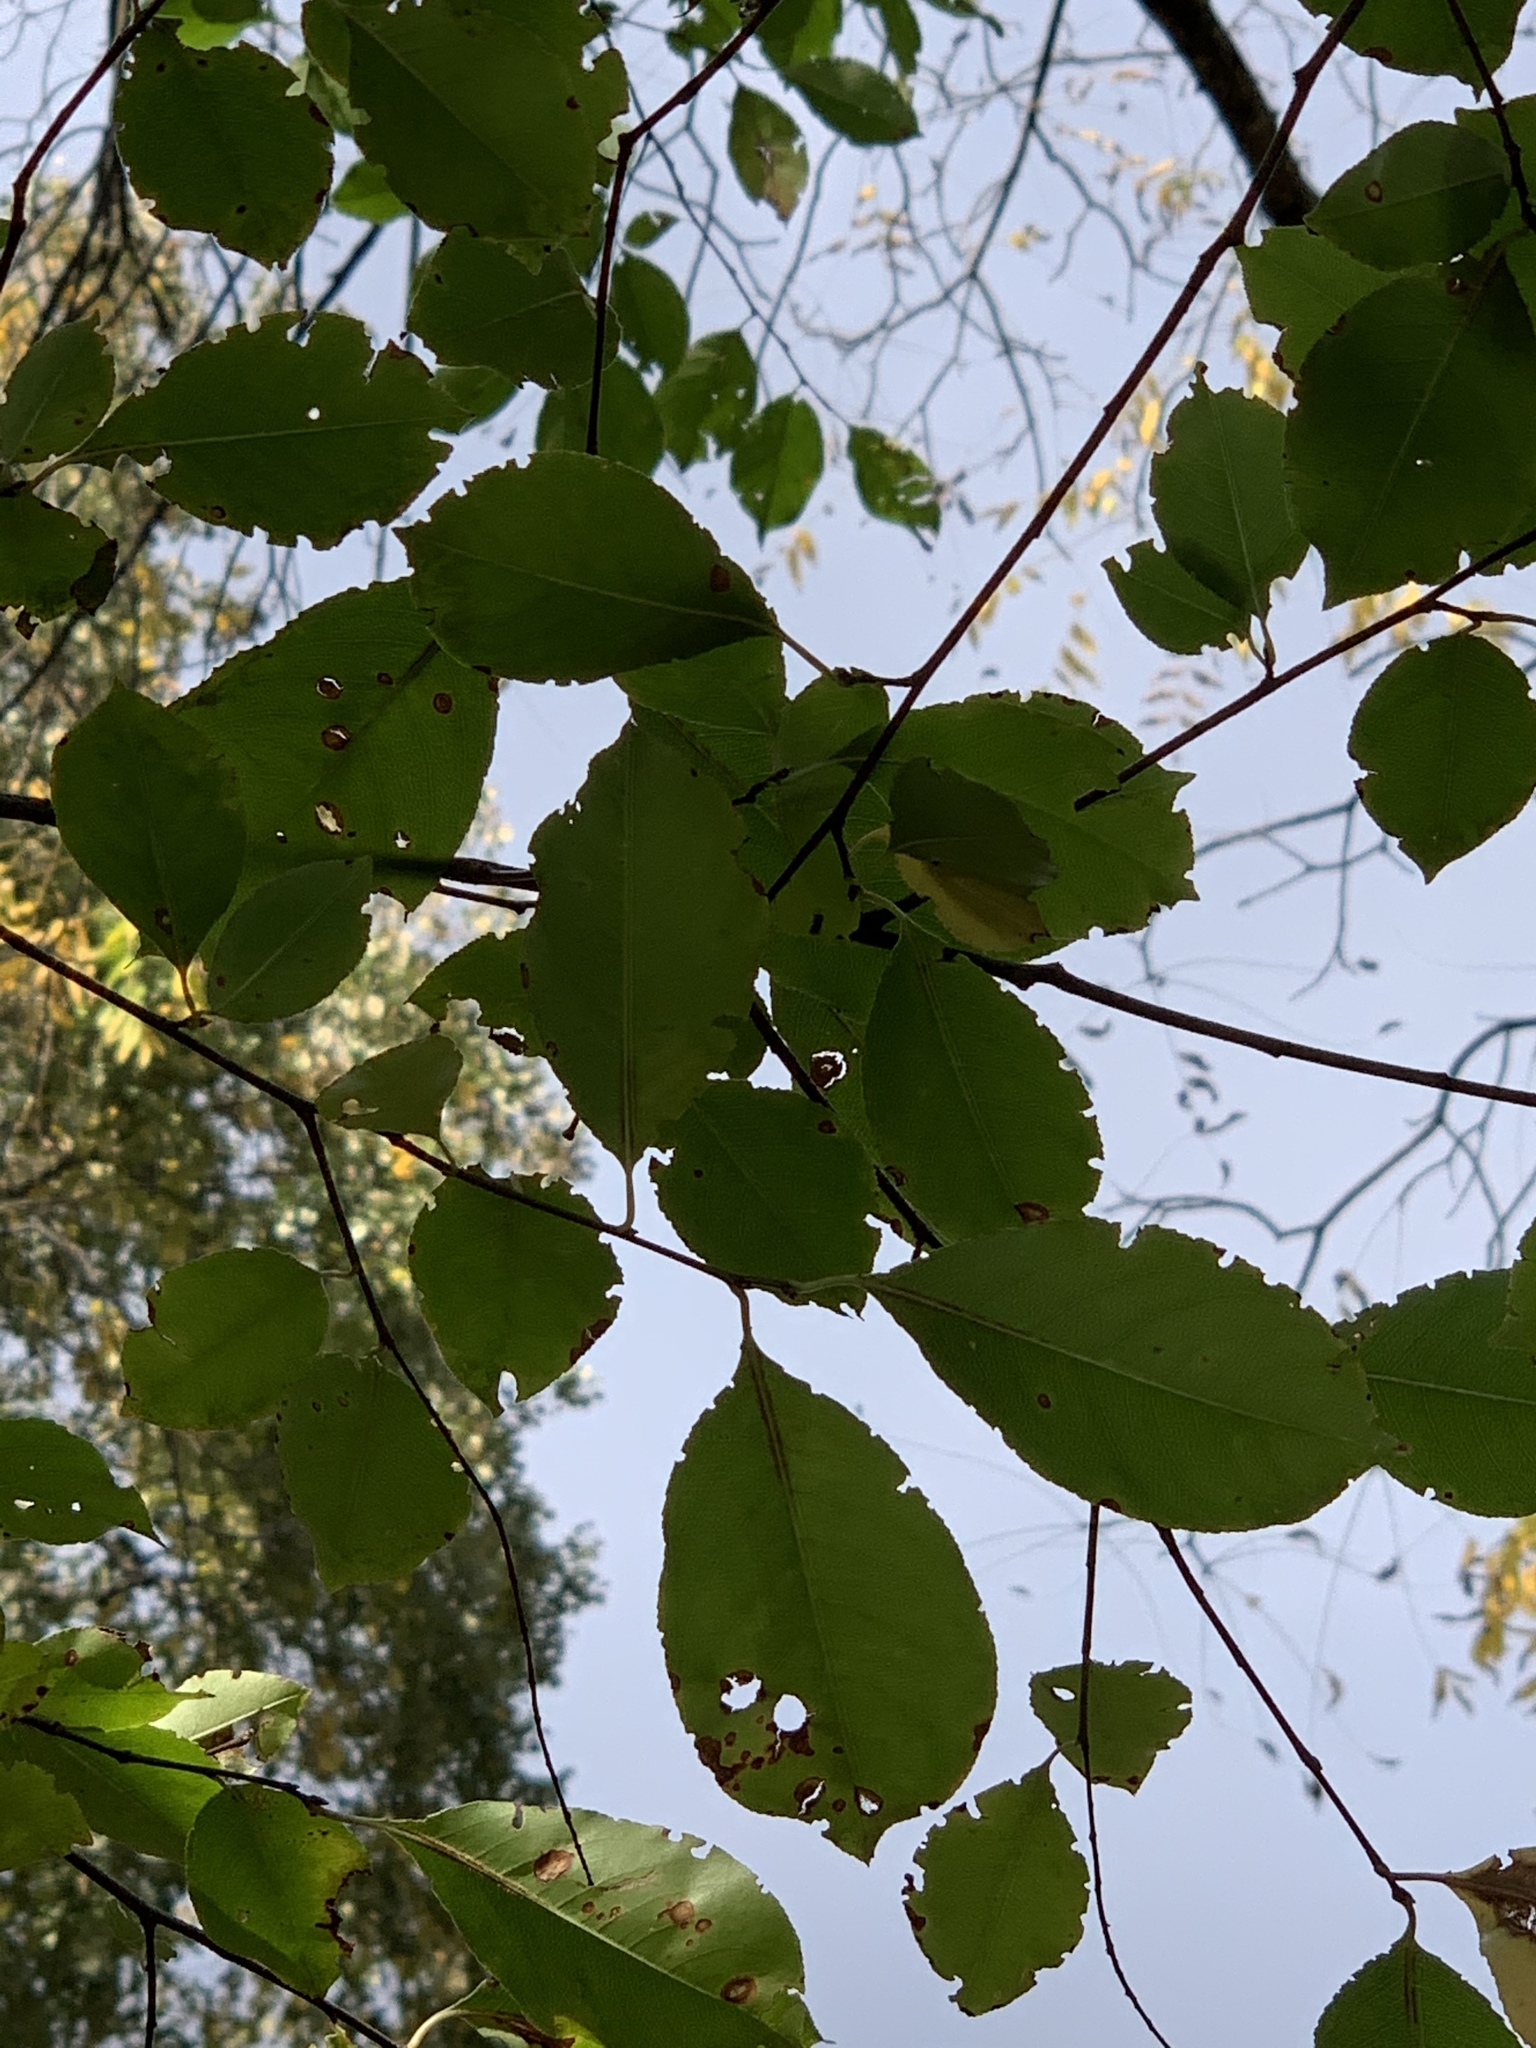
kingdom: Plantae
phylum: Tracheophyta
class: Magnoliopsida
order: Rosales
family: Rosaceae
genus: Prunus
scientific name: Prunus serotina
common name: Black cherry
